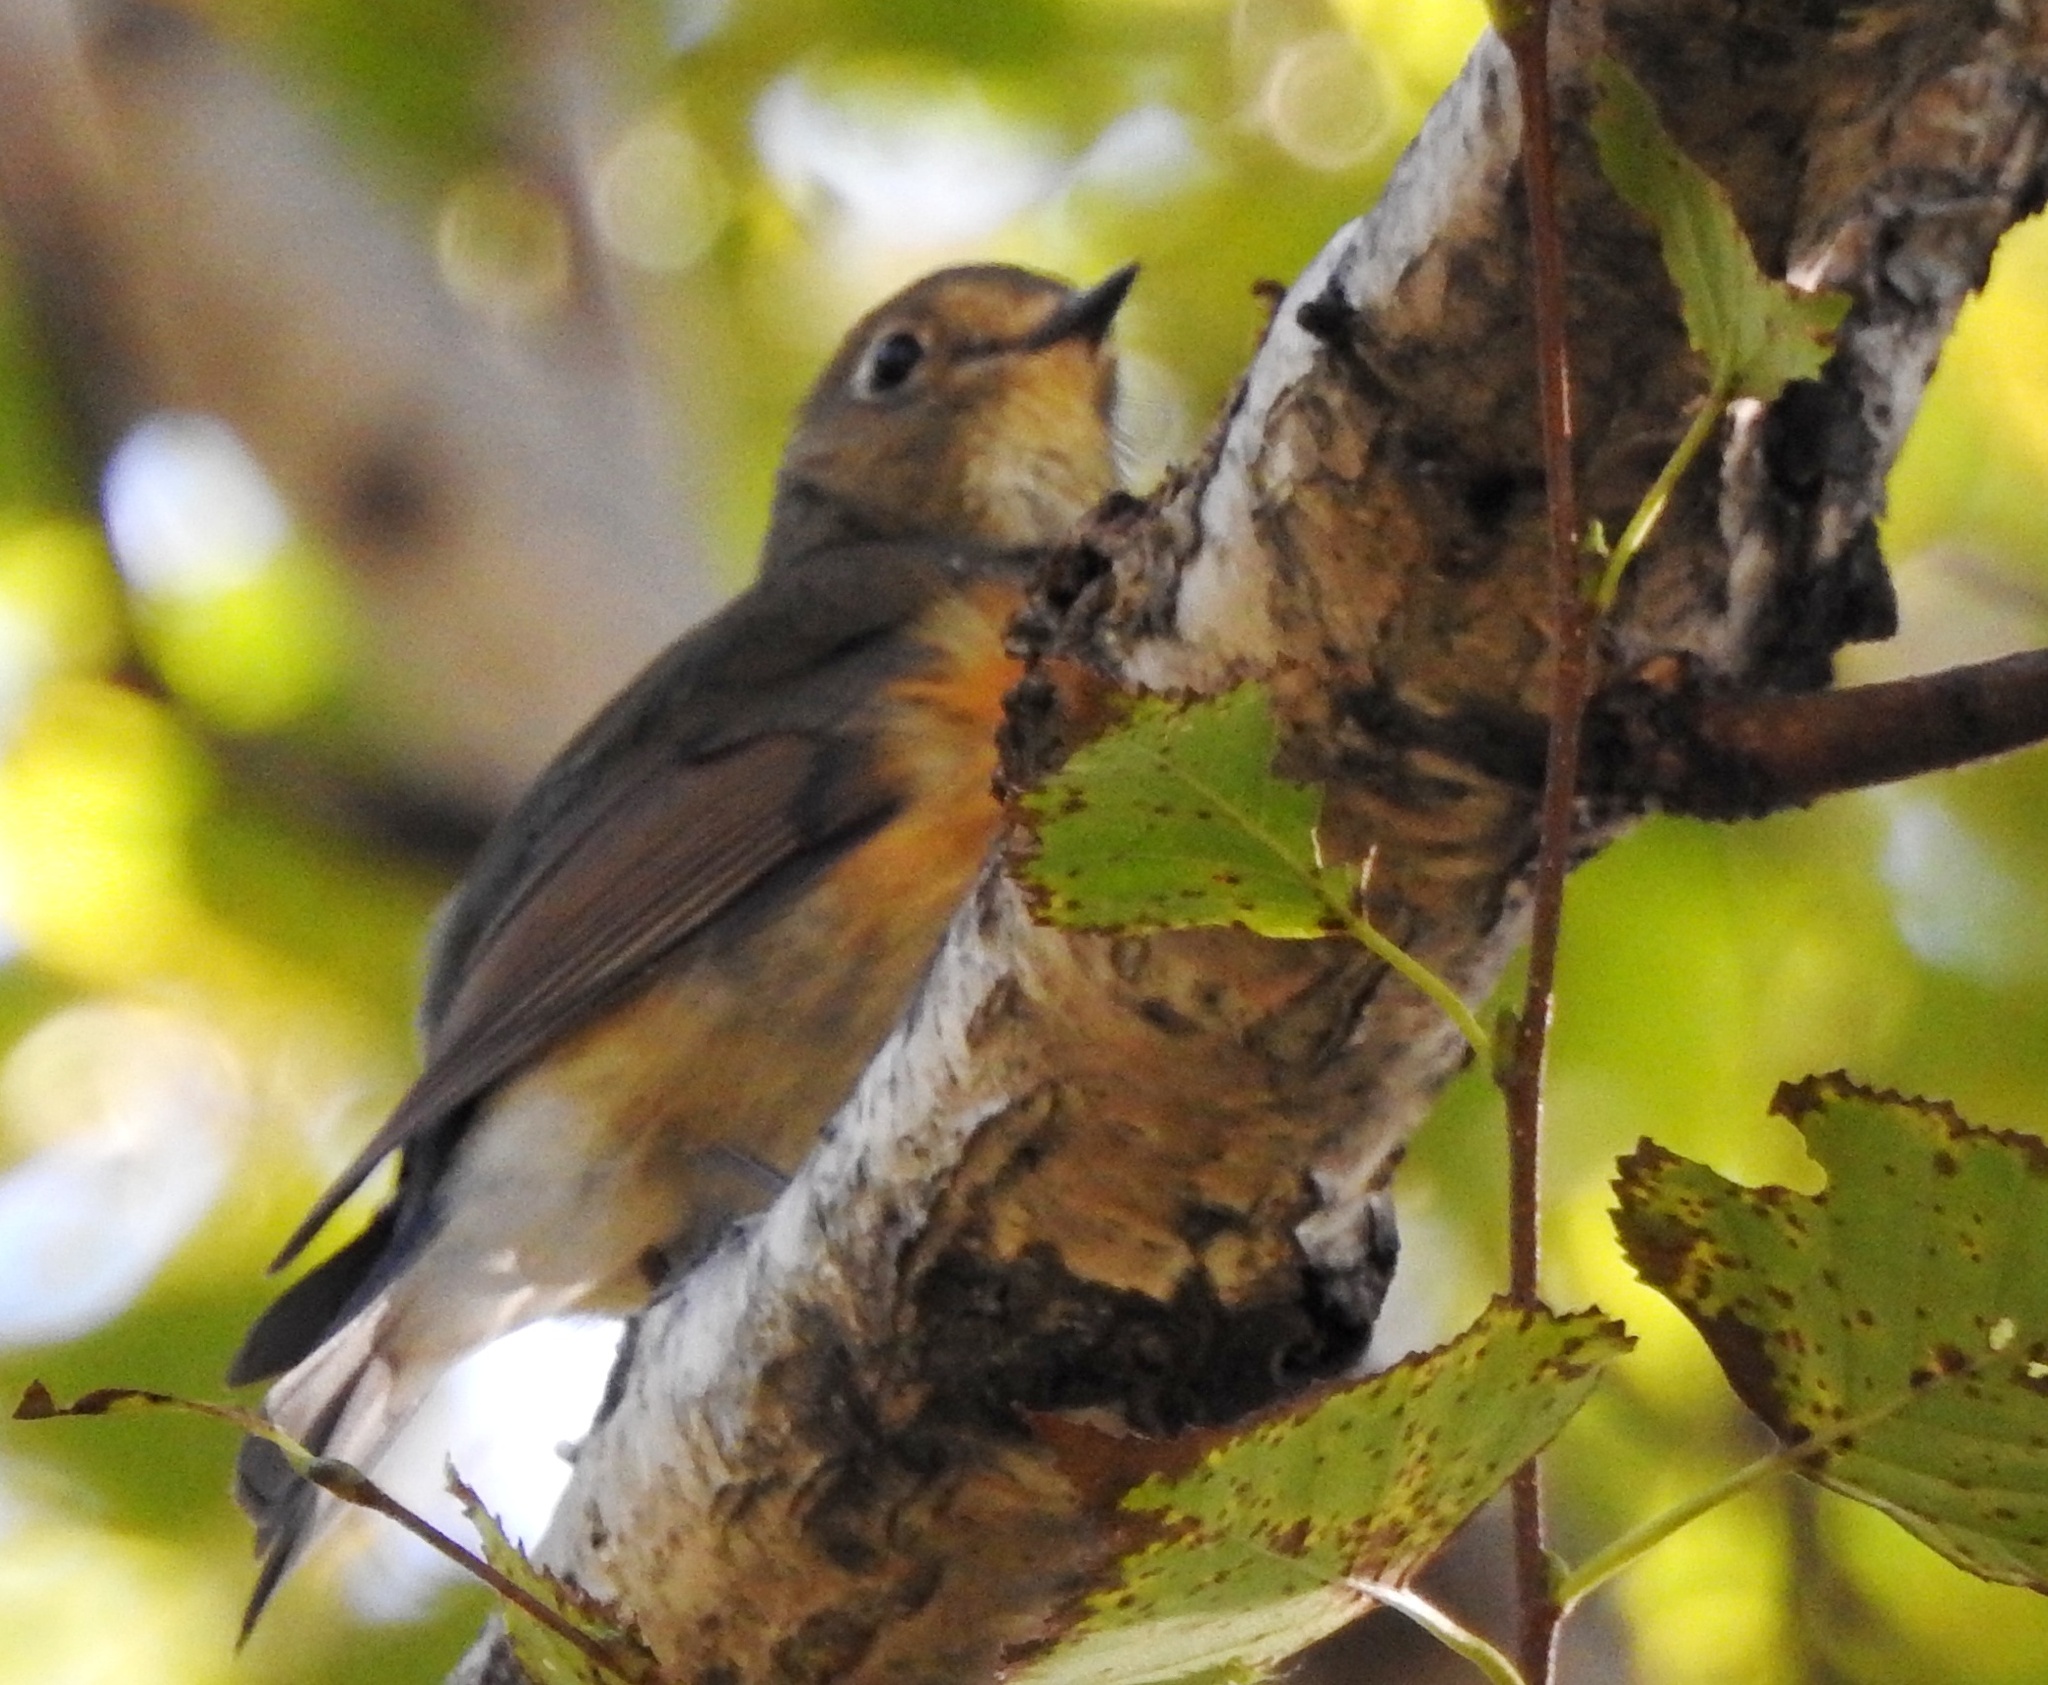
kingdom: Animalia
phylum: Chordata
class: Aves
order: Passeriformes
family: Muscicapidae
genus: Tarsiger
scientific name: Tarsiger cyanurus
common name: Red-flanked bluetail
